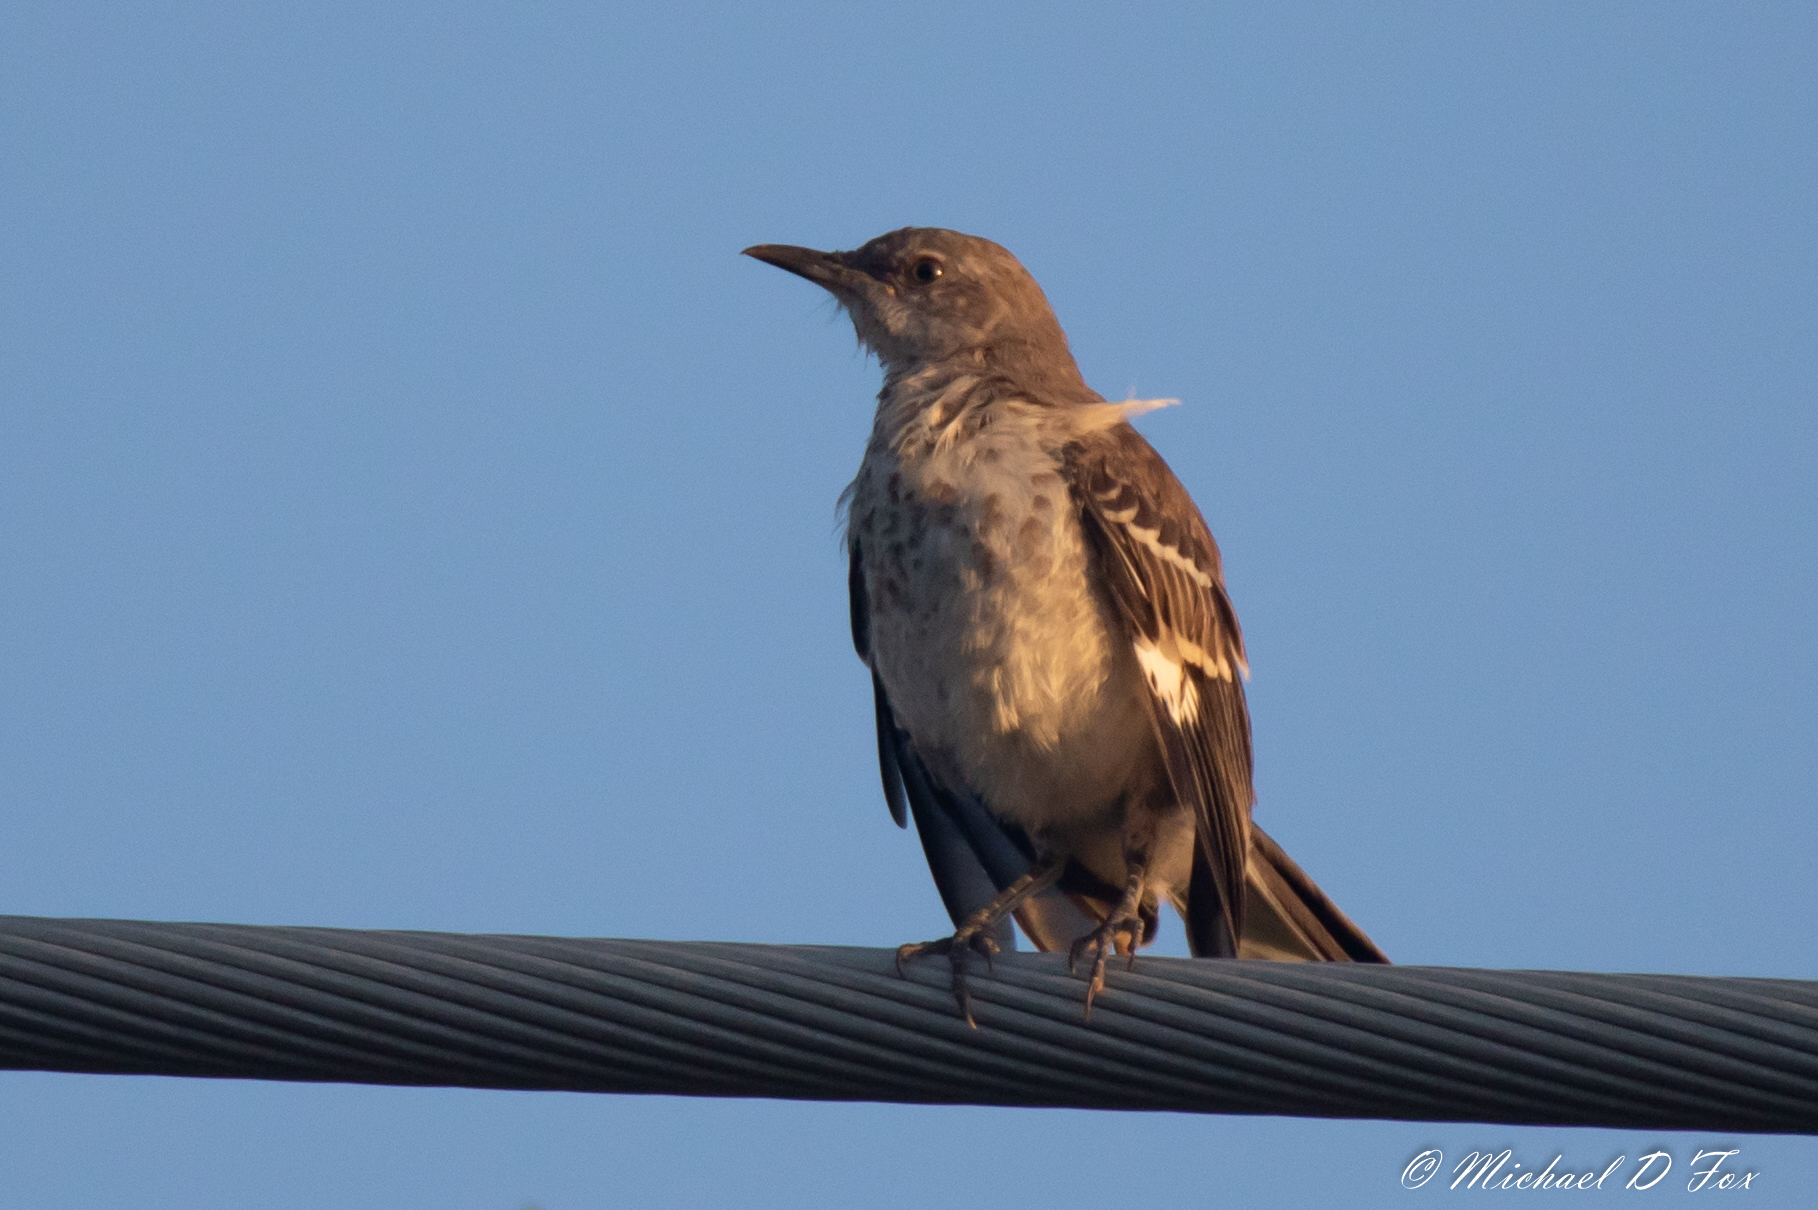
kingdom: Animalia
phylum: Chordata
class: Aves
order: Passeriformes
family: Mimidae
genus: Mimus
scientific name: Mimus polyglottos
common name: Northern mockingbird
